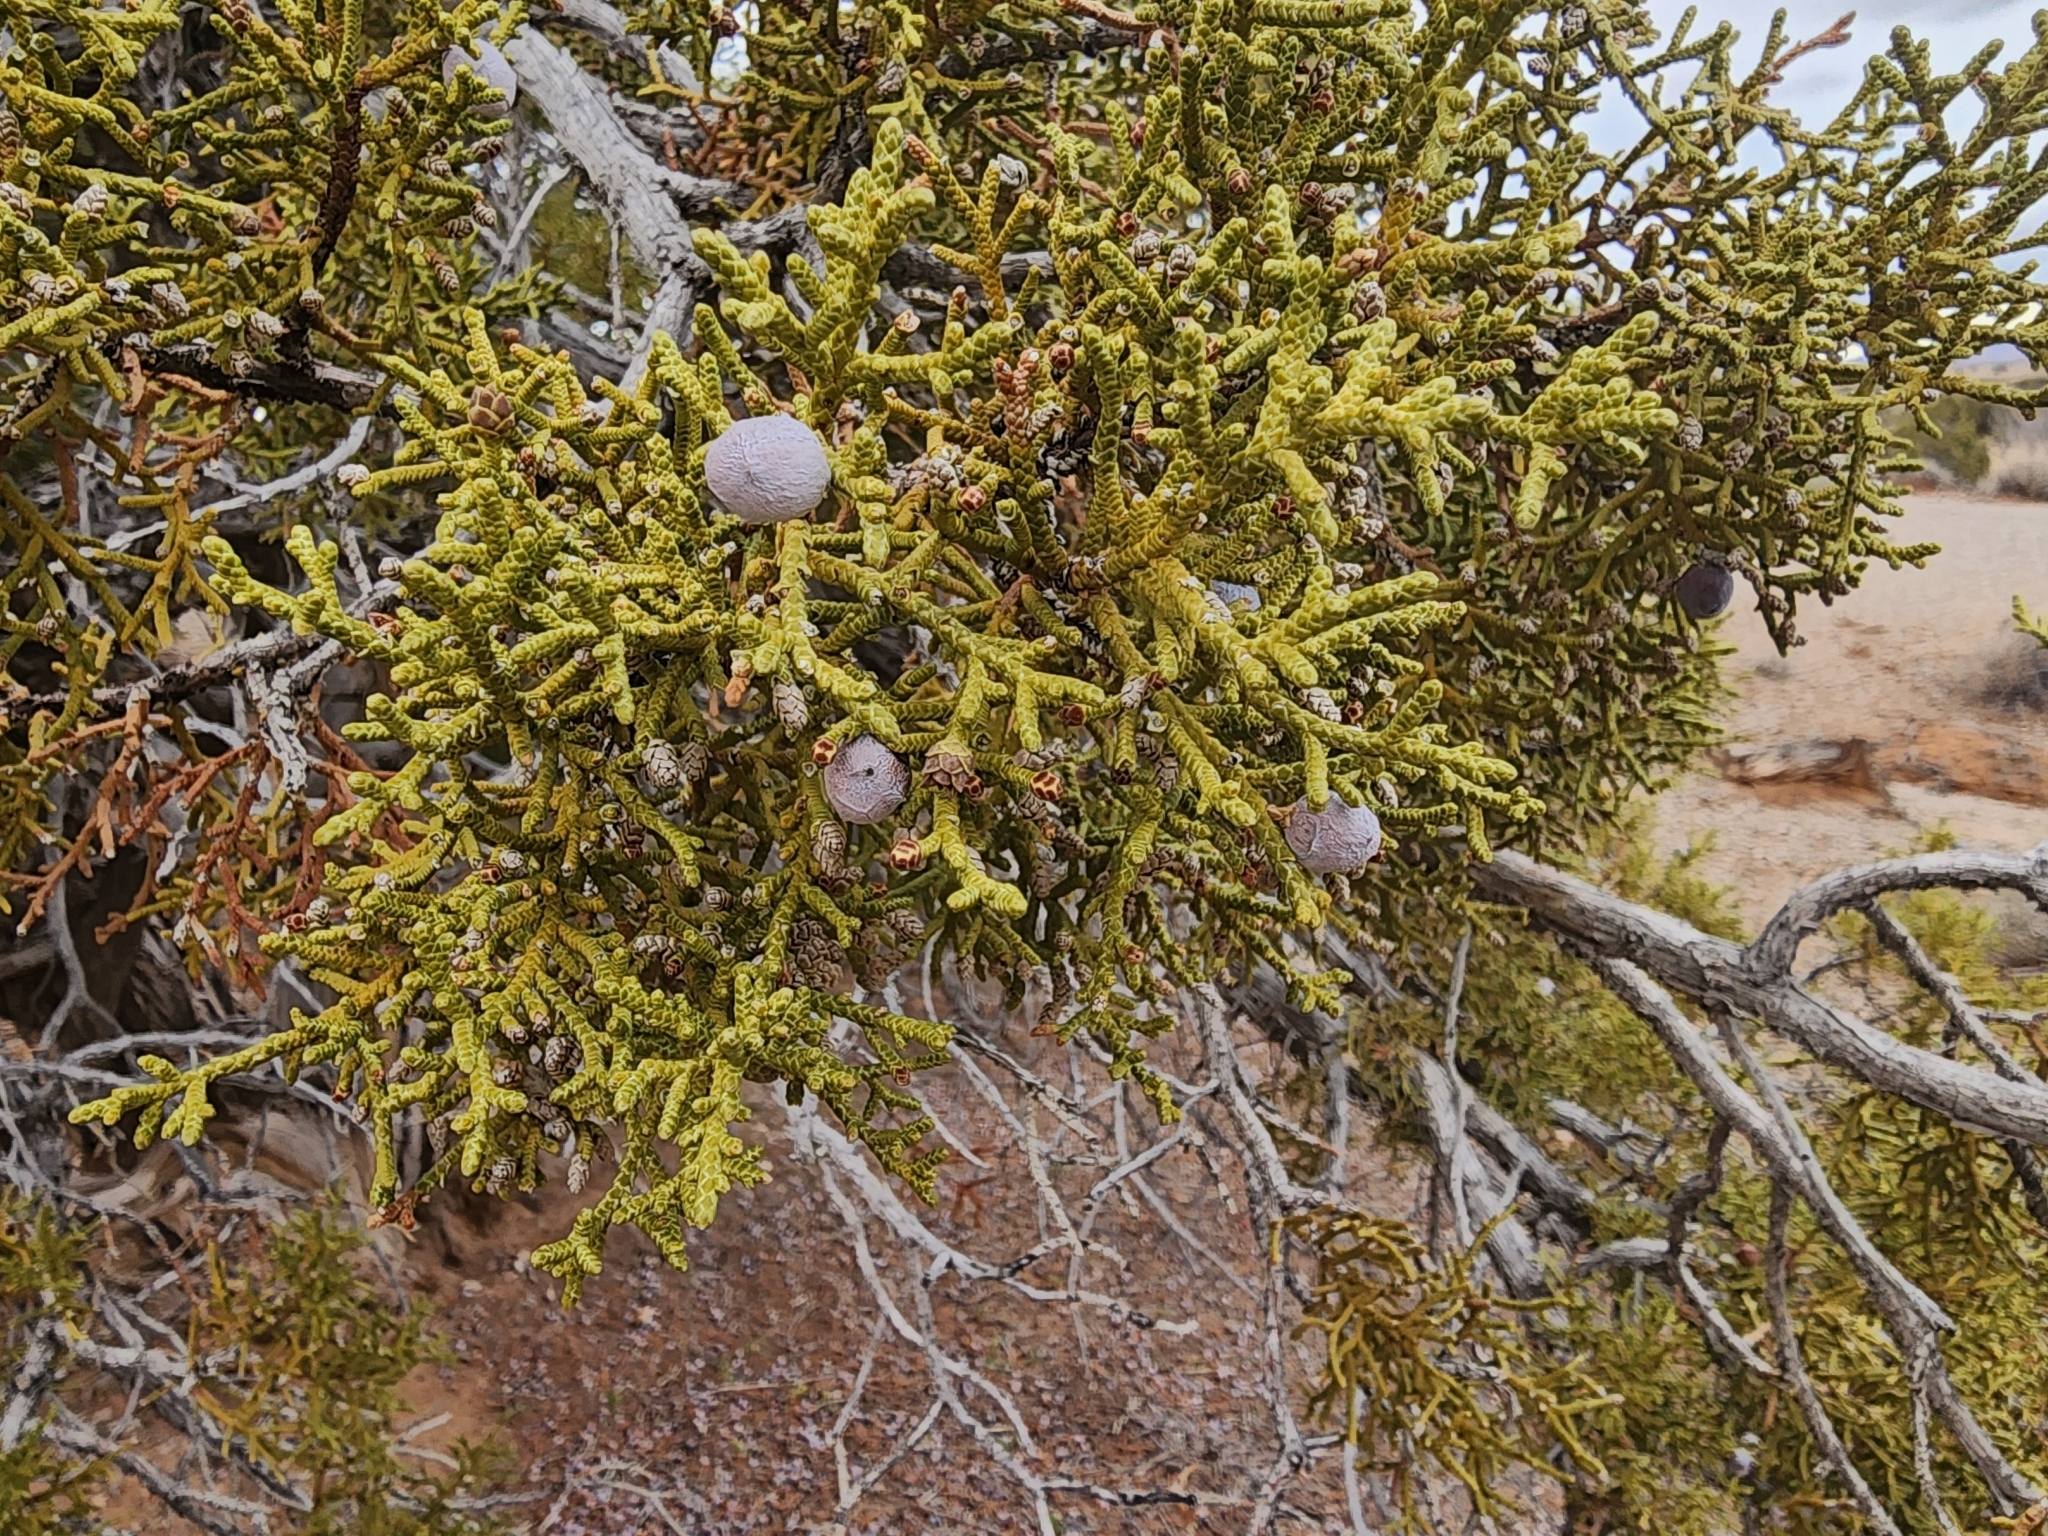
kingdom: Plantae
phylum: Tracheophyta
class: Pinopsida
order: Pinales
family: Cupressaceae
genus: Juniperus
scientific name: Juniperus osteosperma
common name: Utah juniper
